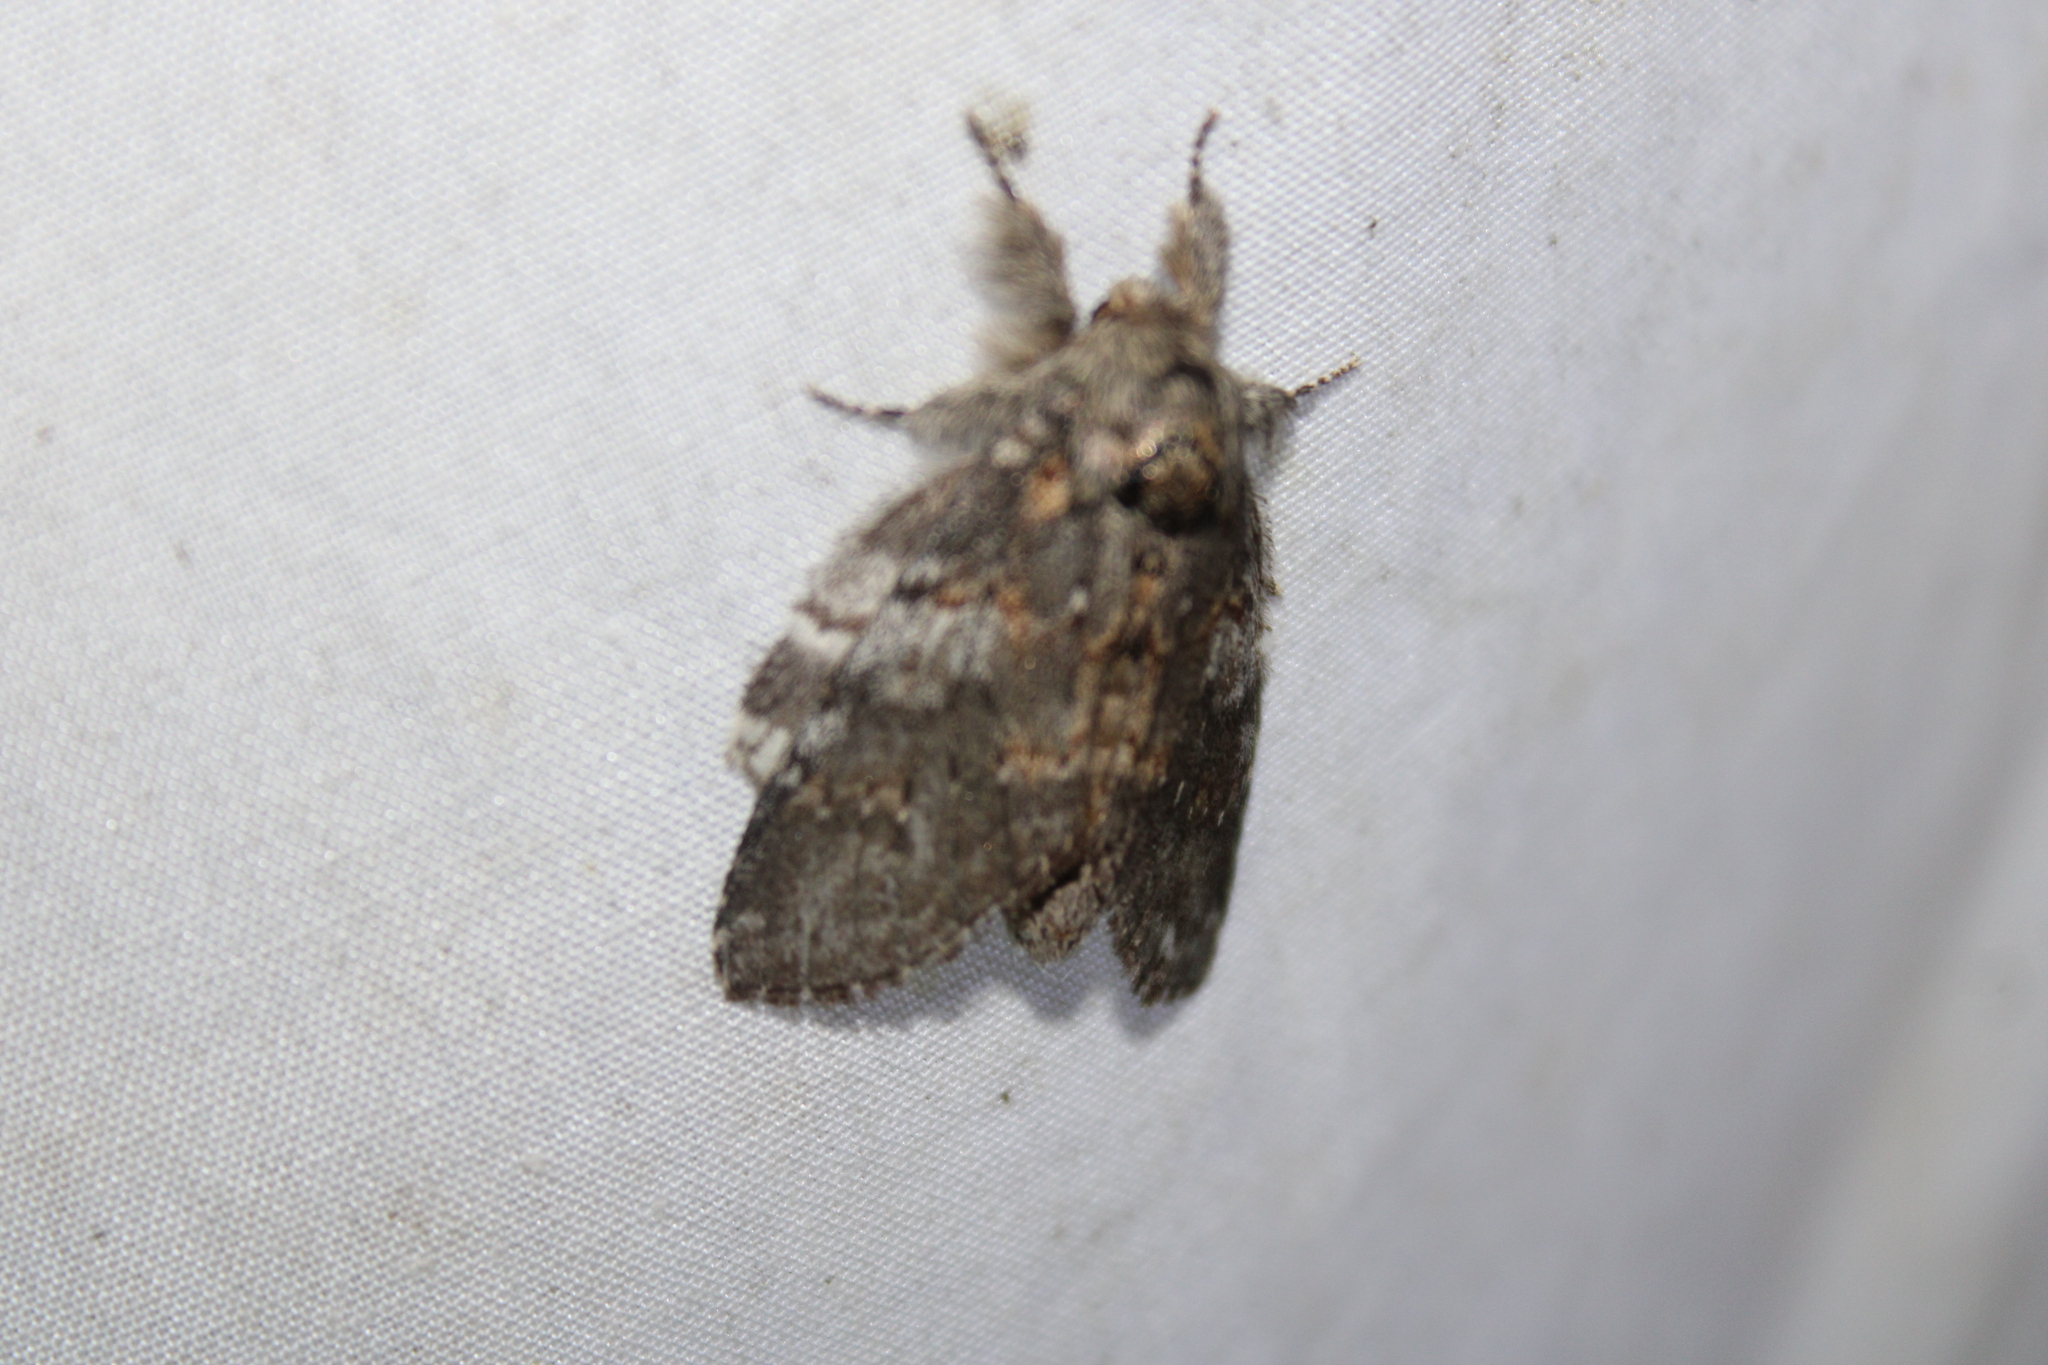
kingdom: Animalia
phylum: Arthropoda
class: Insecta
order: Lepidoptera
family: Notodontidae
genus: Peridea
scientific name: Peridea angulosa
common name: Angulose prominent
